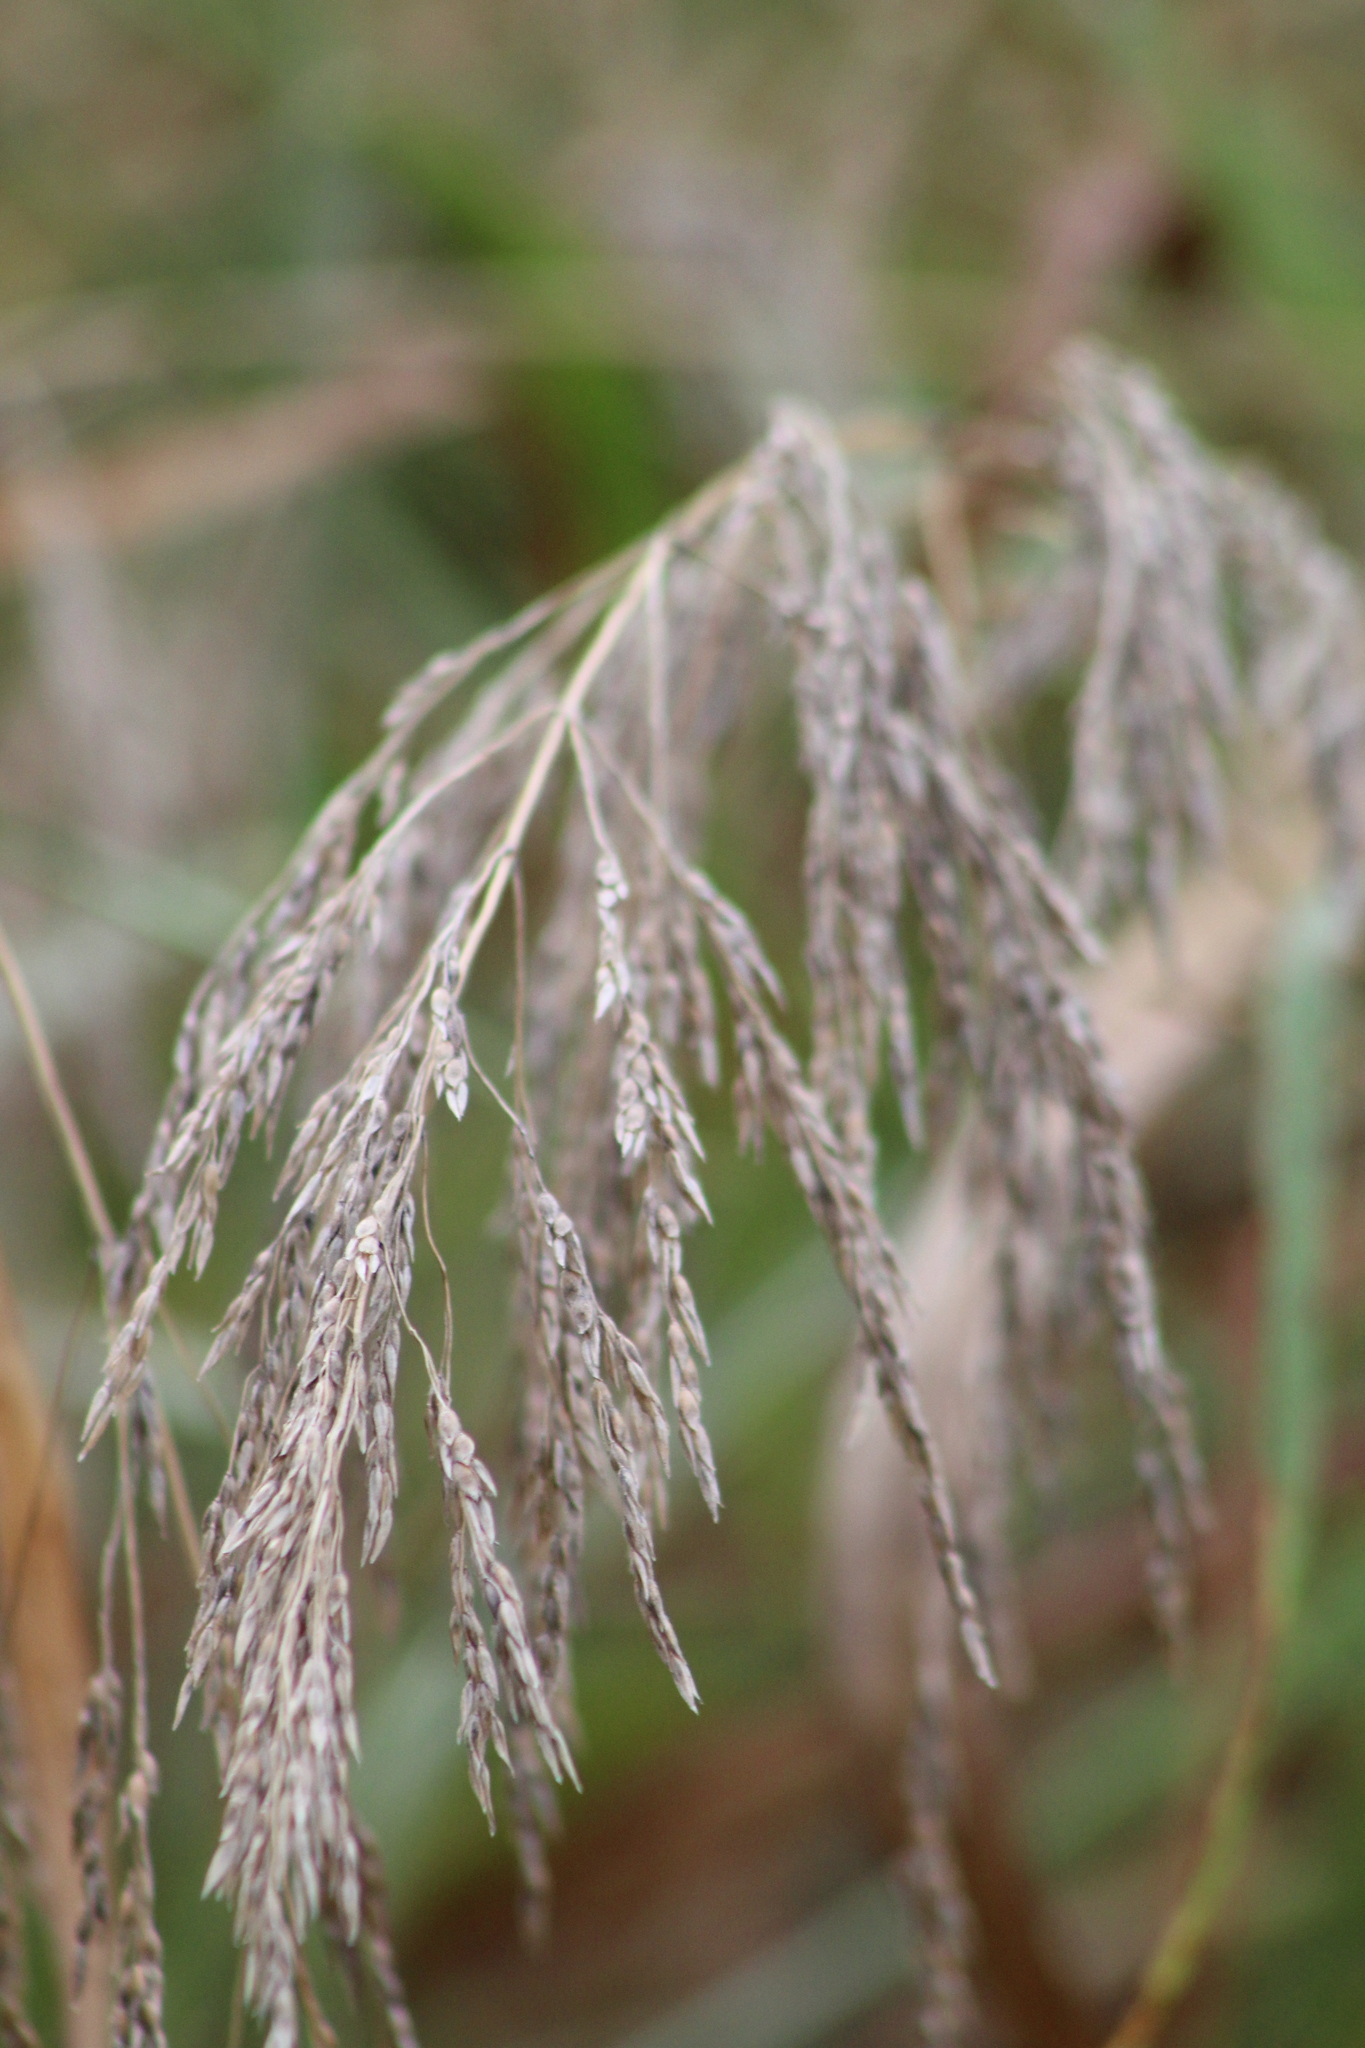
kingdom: Plantae
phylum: Tracheophyta
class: Liliopsida
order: Poales
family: Poaceae
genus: Sorghum
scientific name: Sorghum halepense
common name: Johnson-grass
